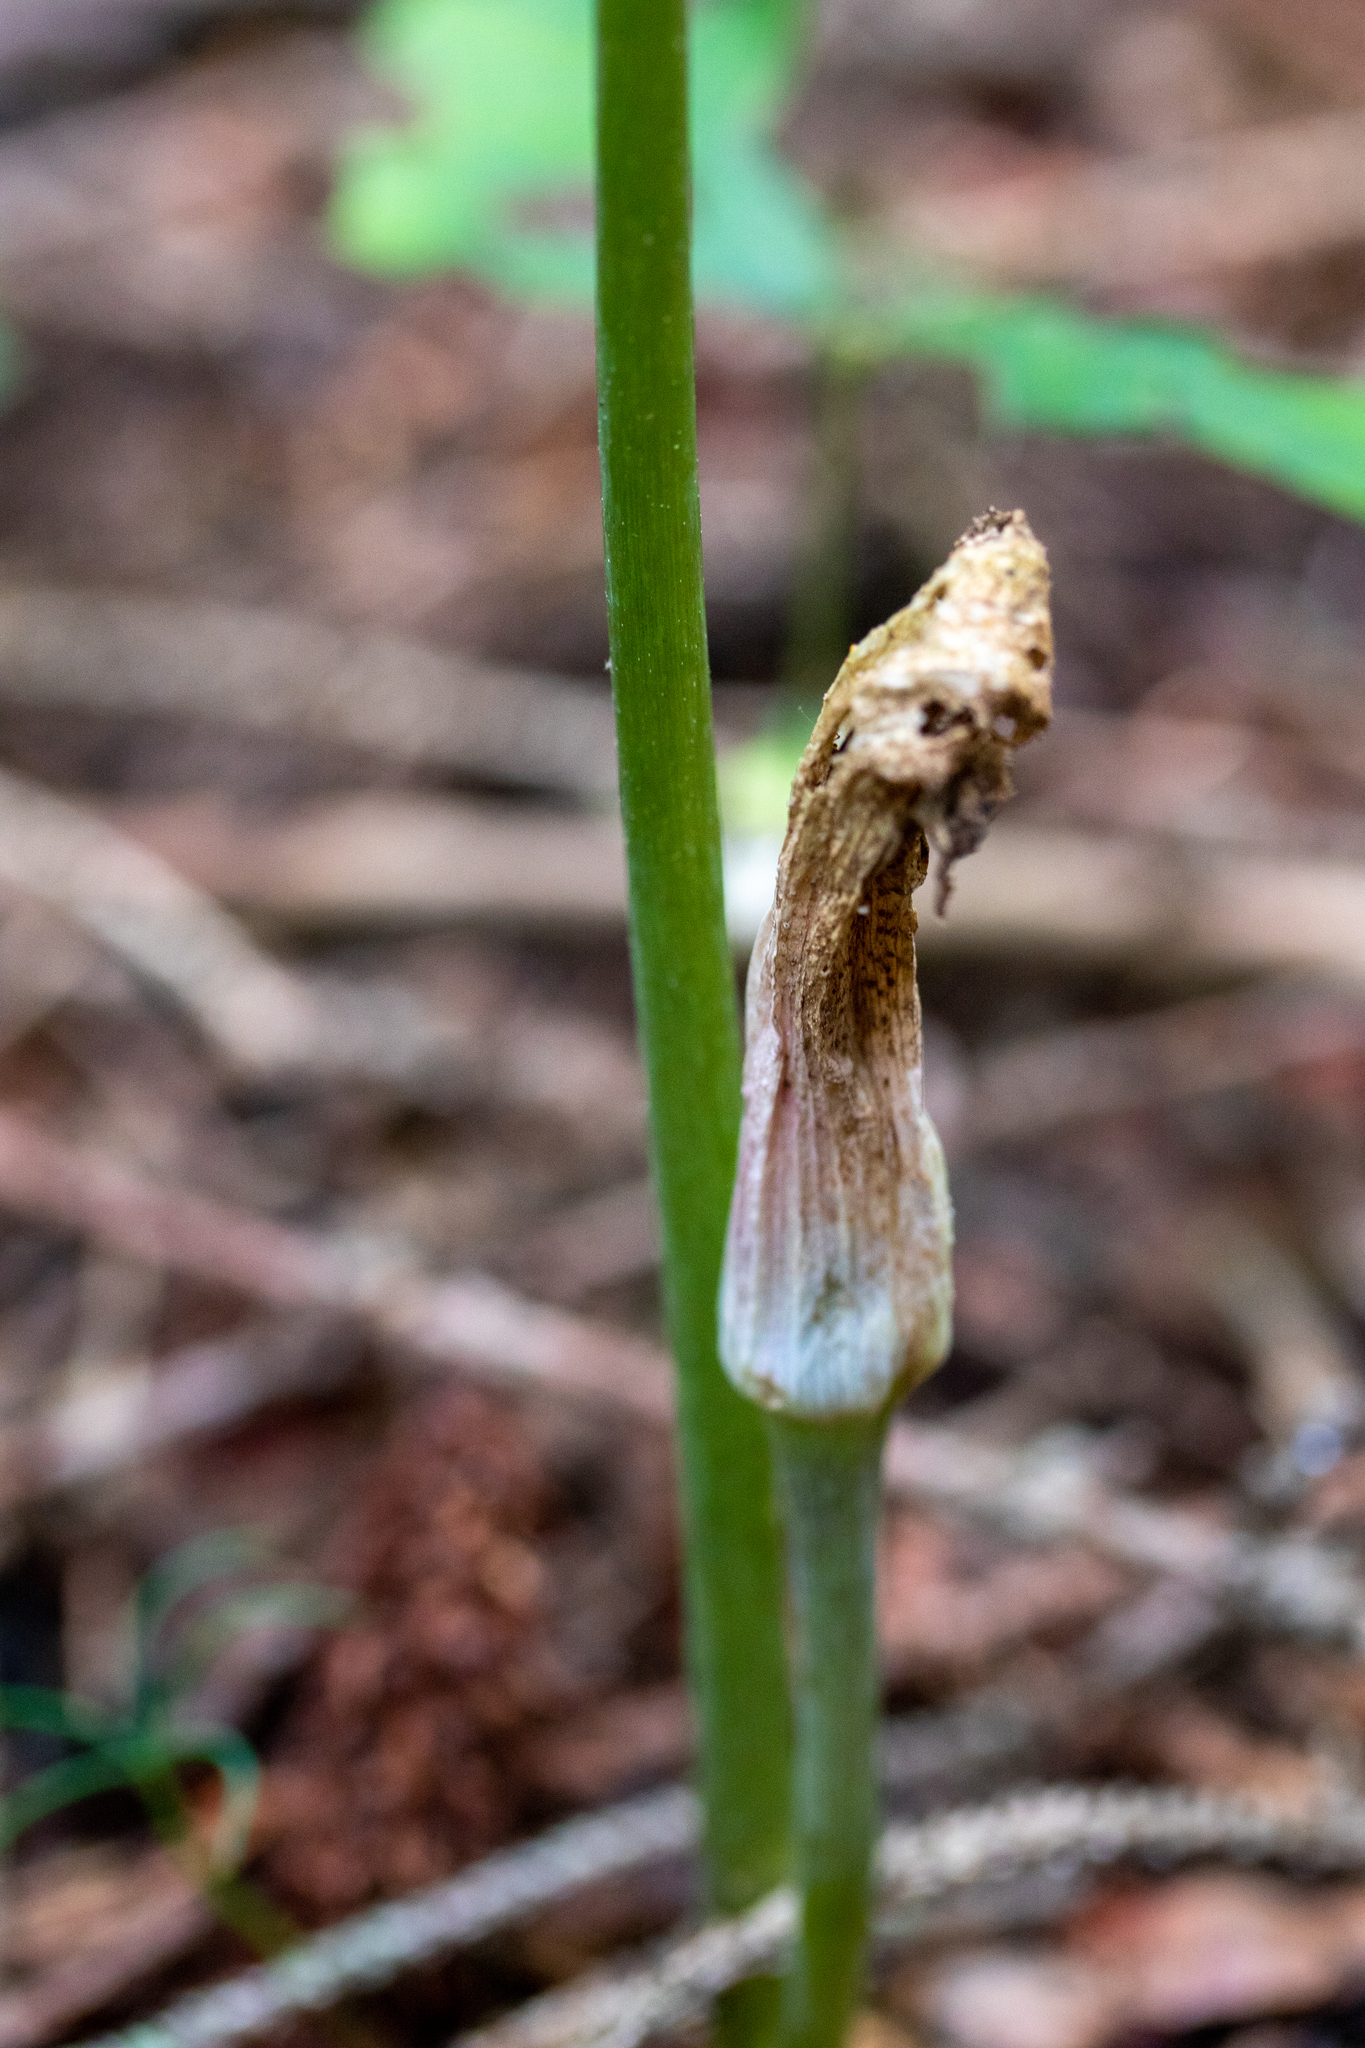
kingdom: Fungi
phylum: Basidiomycota
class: Pucciniomycetes
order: Pucciniales
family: Pucciniaceae
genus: Uromyces
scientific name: Uromyces ari-triphylli
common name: Jack-in-the-pulpit rust
